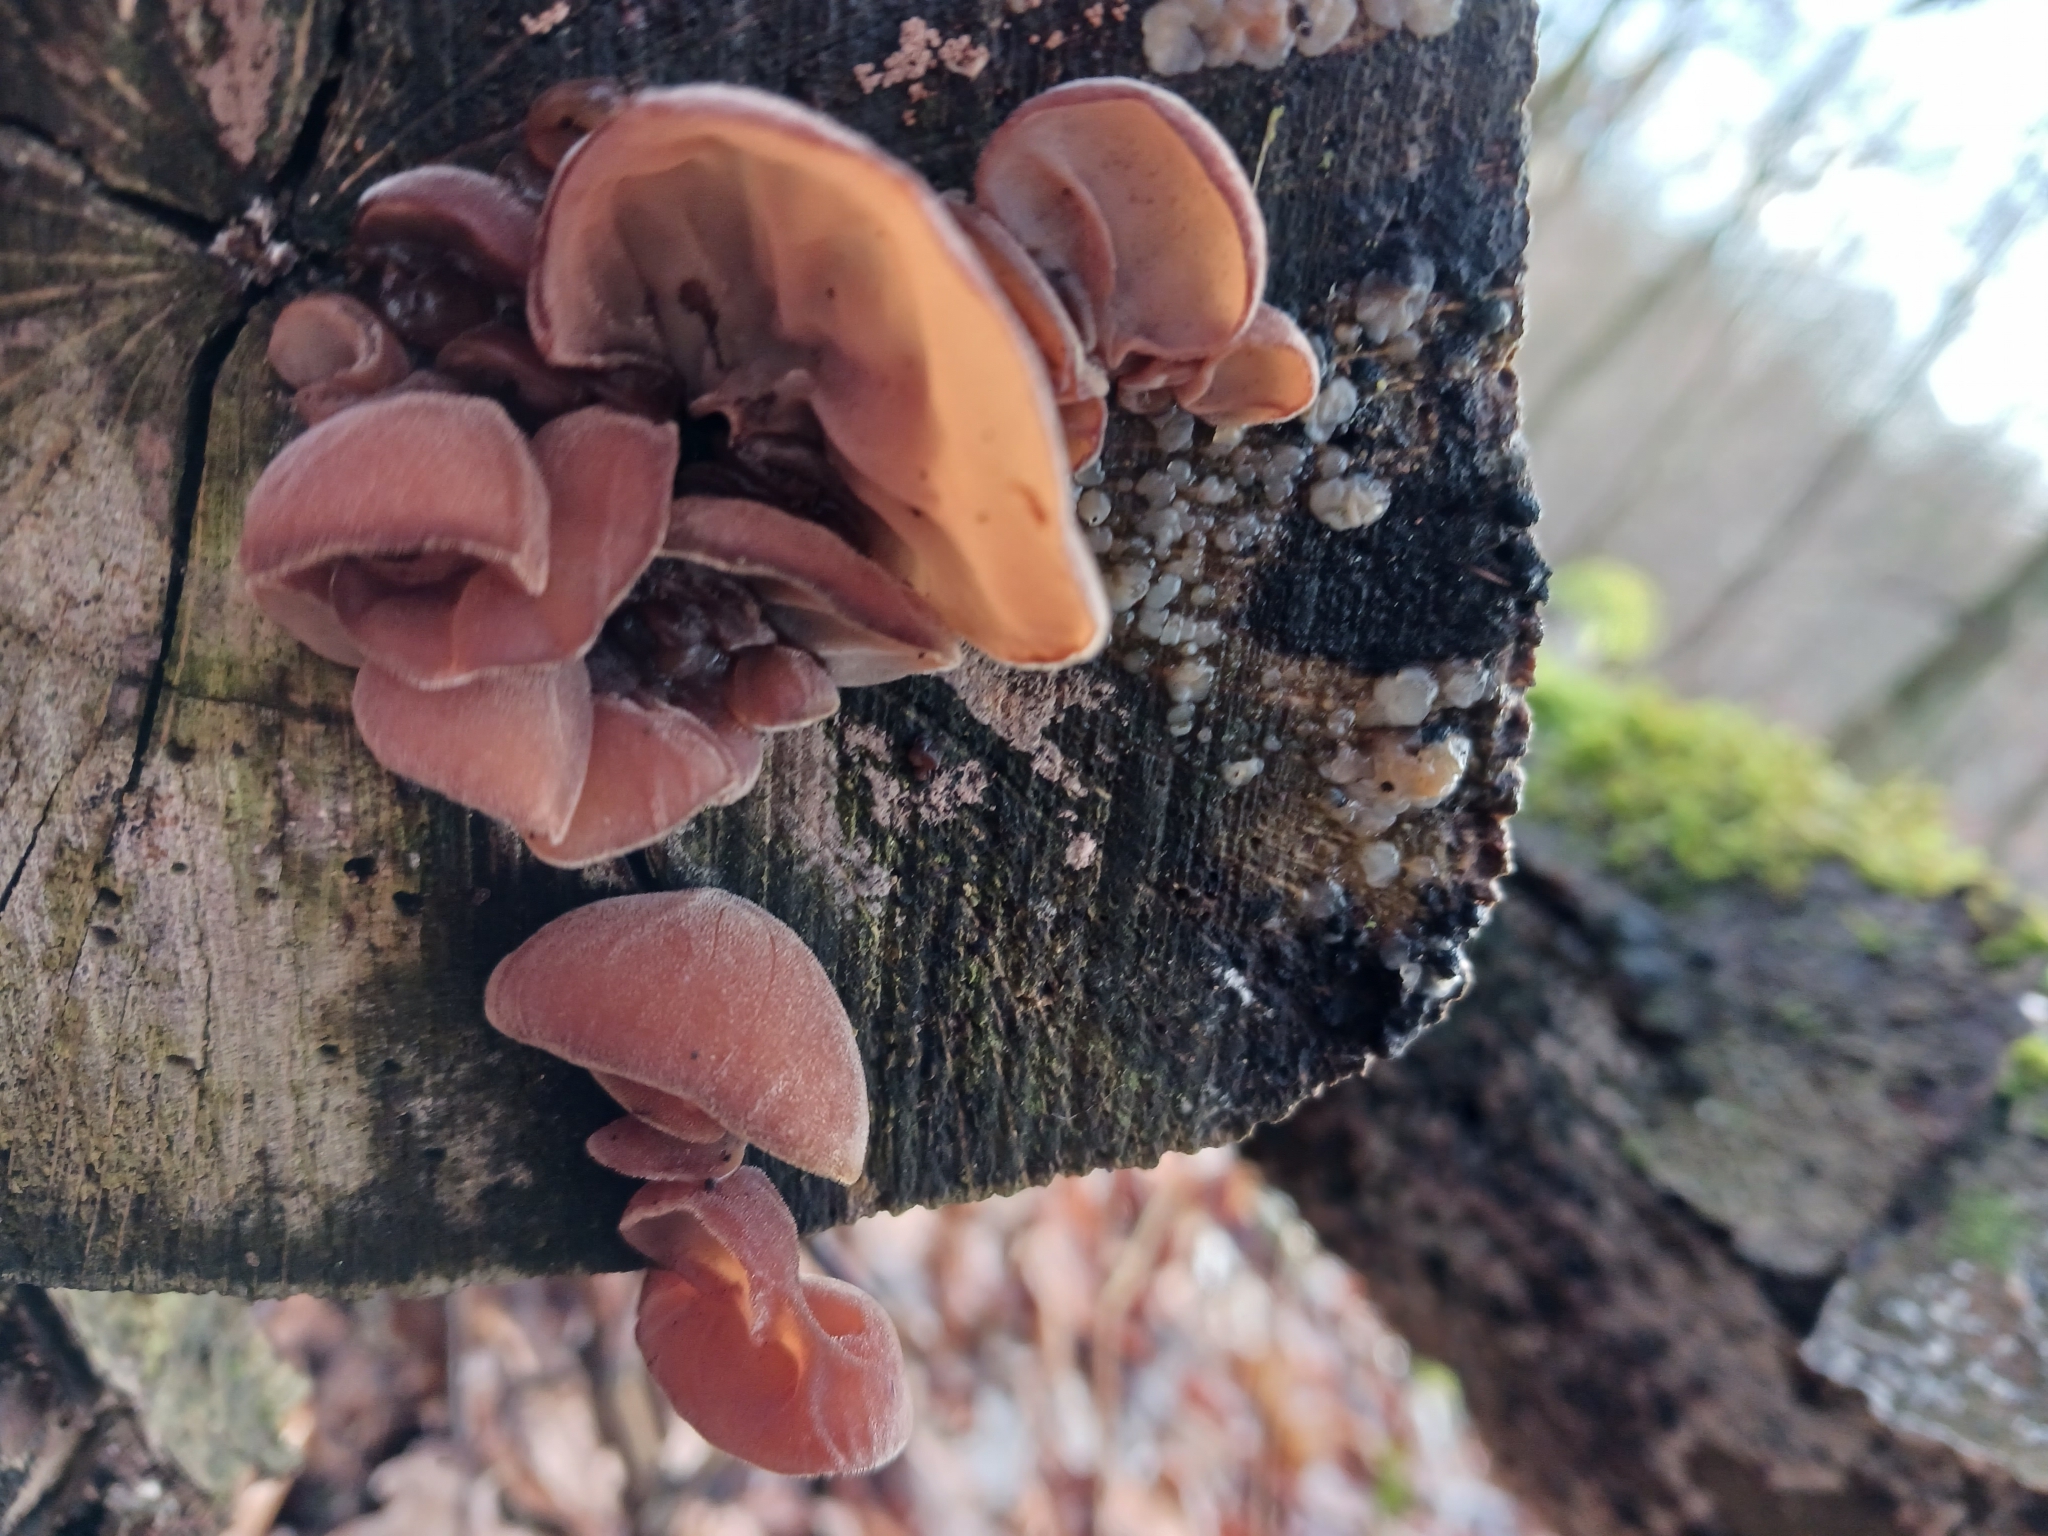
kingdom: Fungi
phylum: Basidiomycota
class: Agaricomycetes
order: Auriculariales
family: Auriculariaceae
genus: Auricularia
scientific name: Auricularia auricula-judae
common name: Jelly ear
